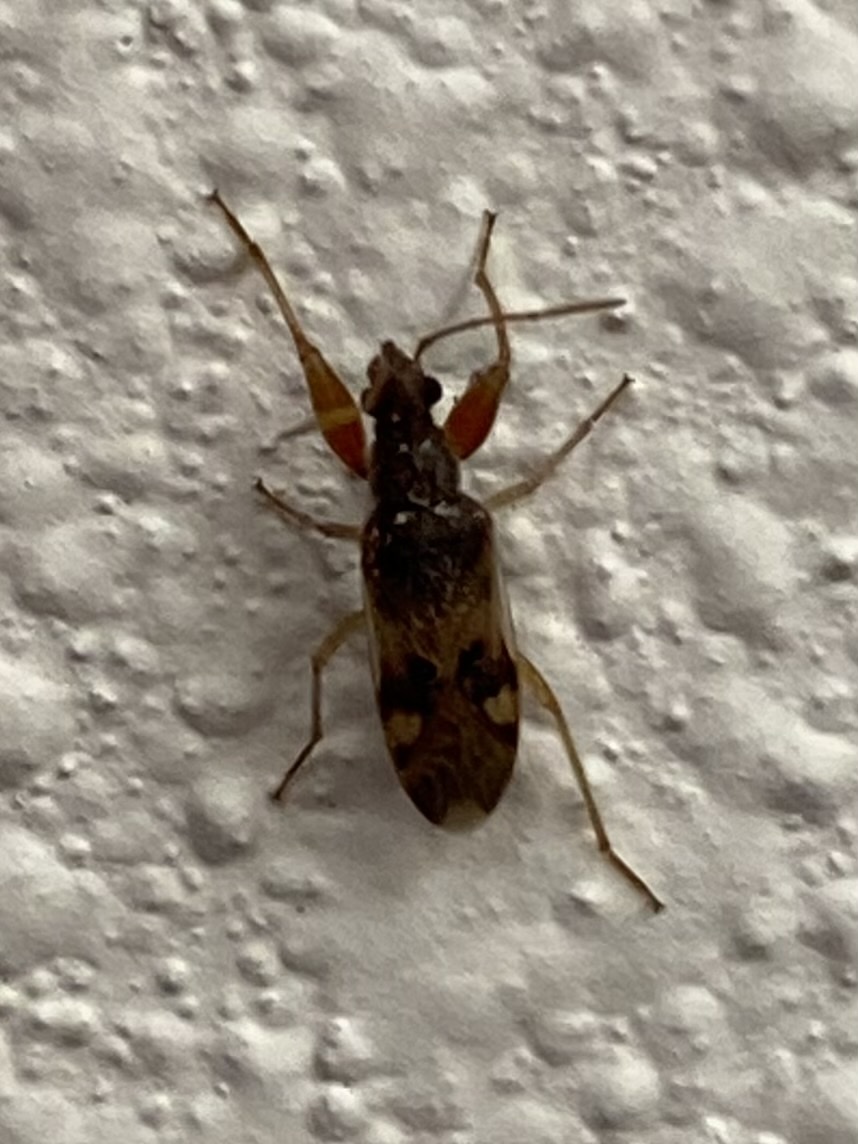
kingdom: Animalia
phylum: Arthropoda
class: Insecta
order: Hemiptera
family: Rhyparochromidae
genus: Pseudopamera
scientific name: Pseudopamera nitidula
